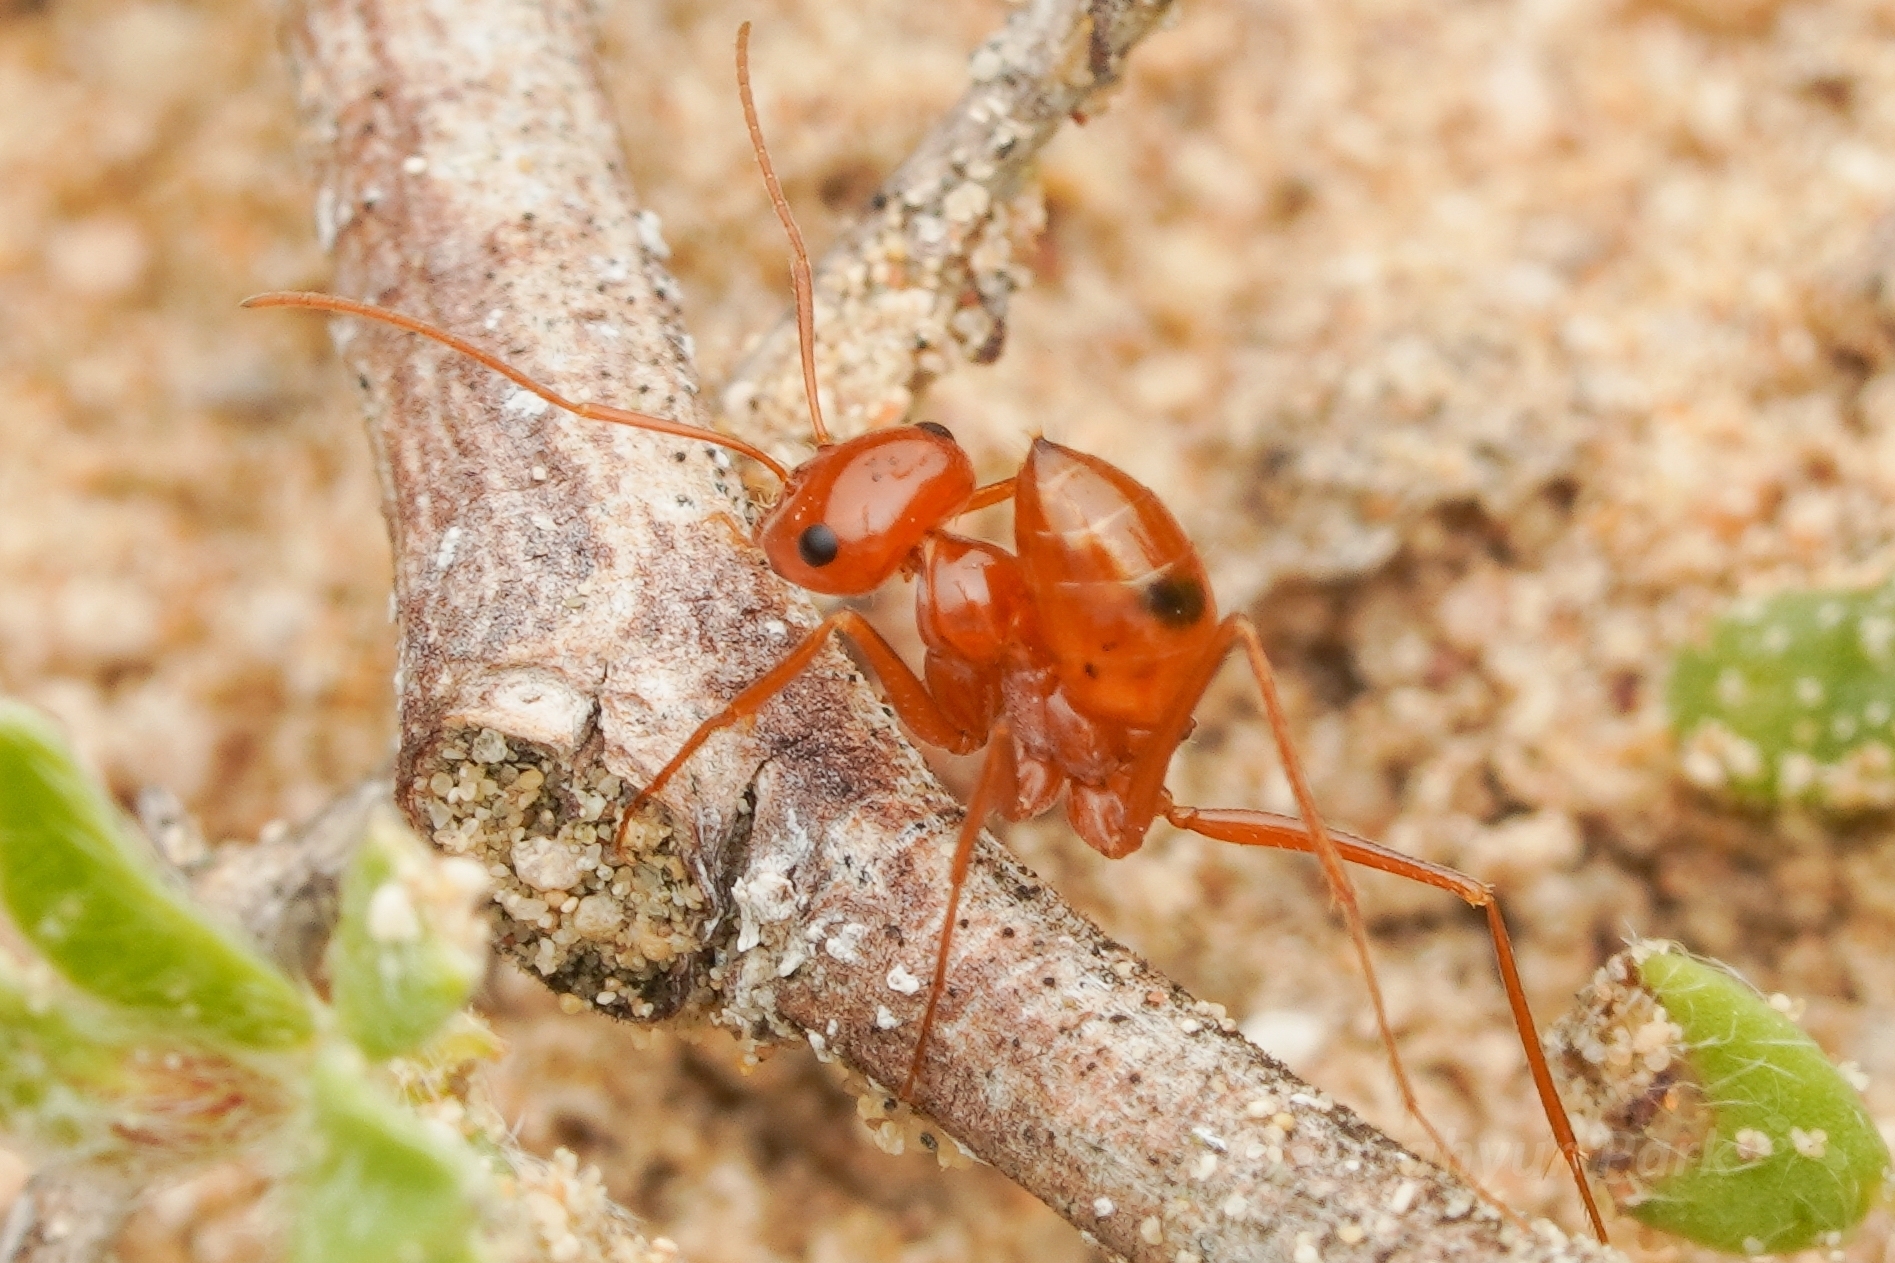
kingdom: Animalia
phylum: Arthropoda
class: Insecta
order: Hymenoptera
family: Formicidae
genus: Pheidole
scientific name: Pheidole lutea
